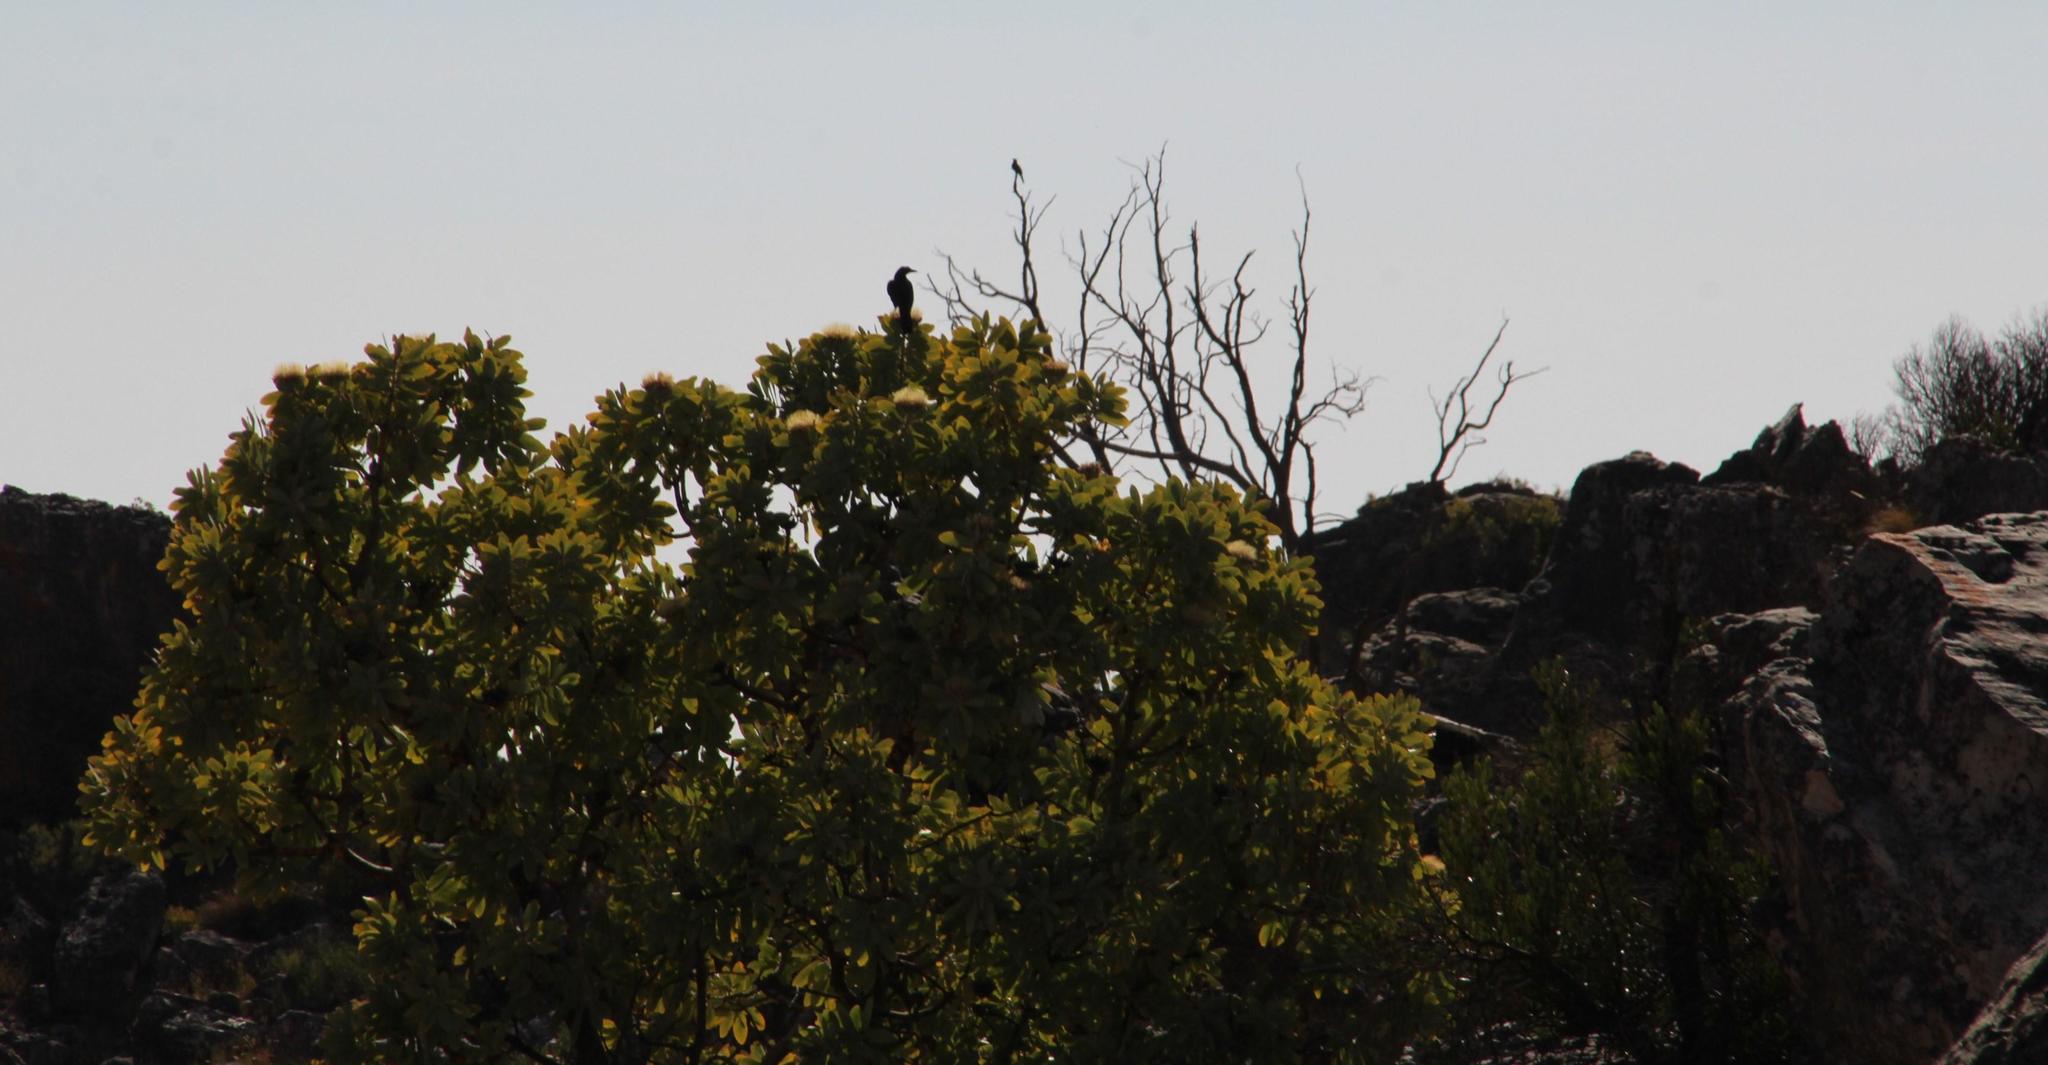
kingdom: Animalia
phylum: Chordata
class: Aves
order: Passeriformes
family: Sturnidae
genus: Onychognathus
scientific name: Onychognathus morio
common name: Red-winged starling
